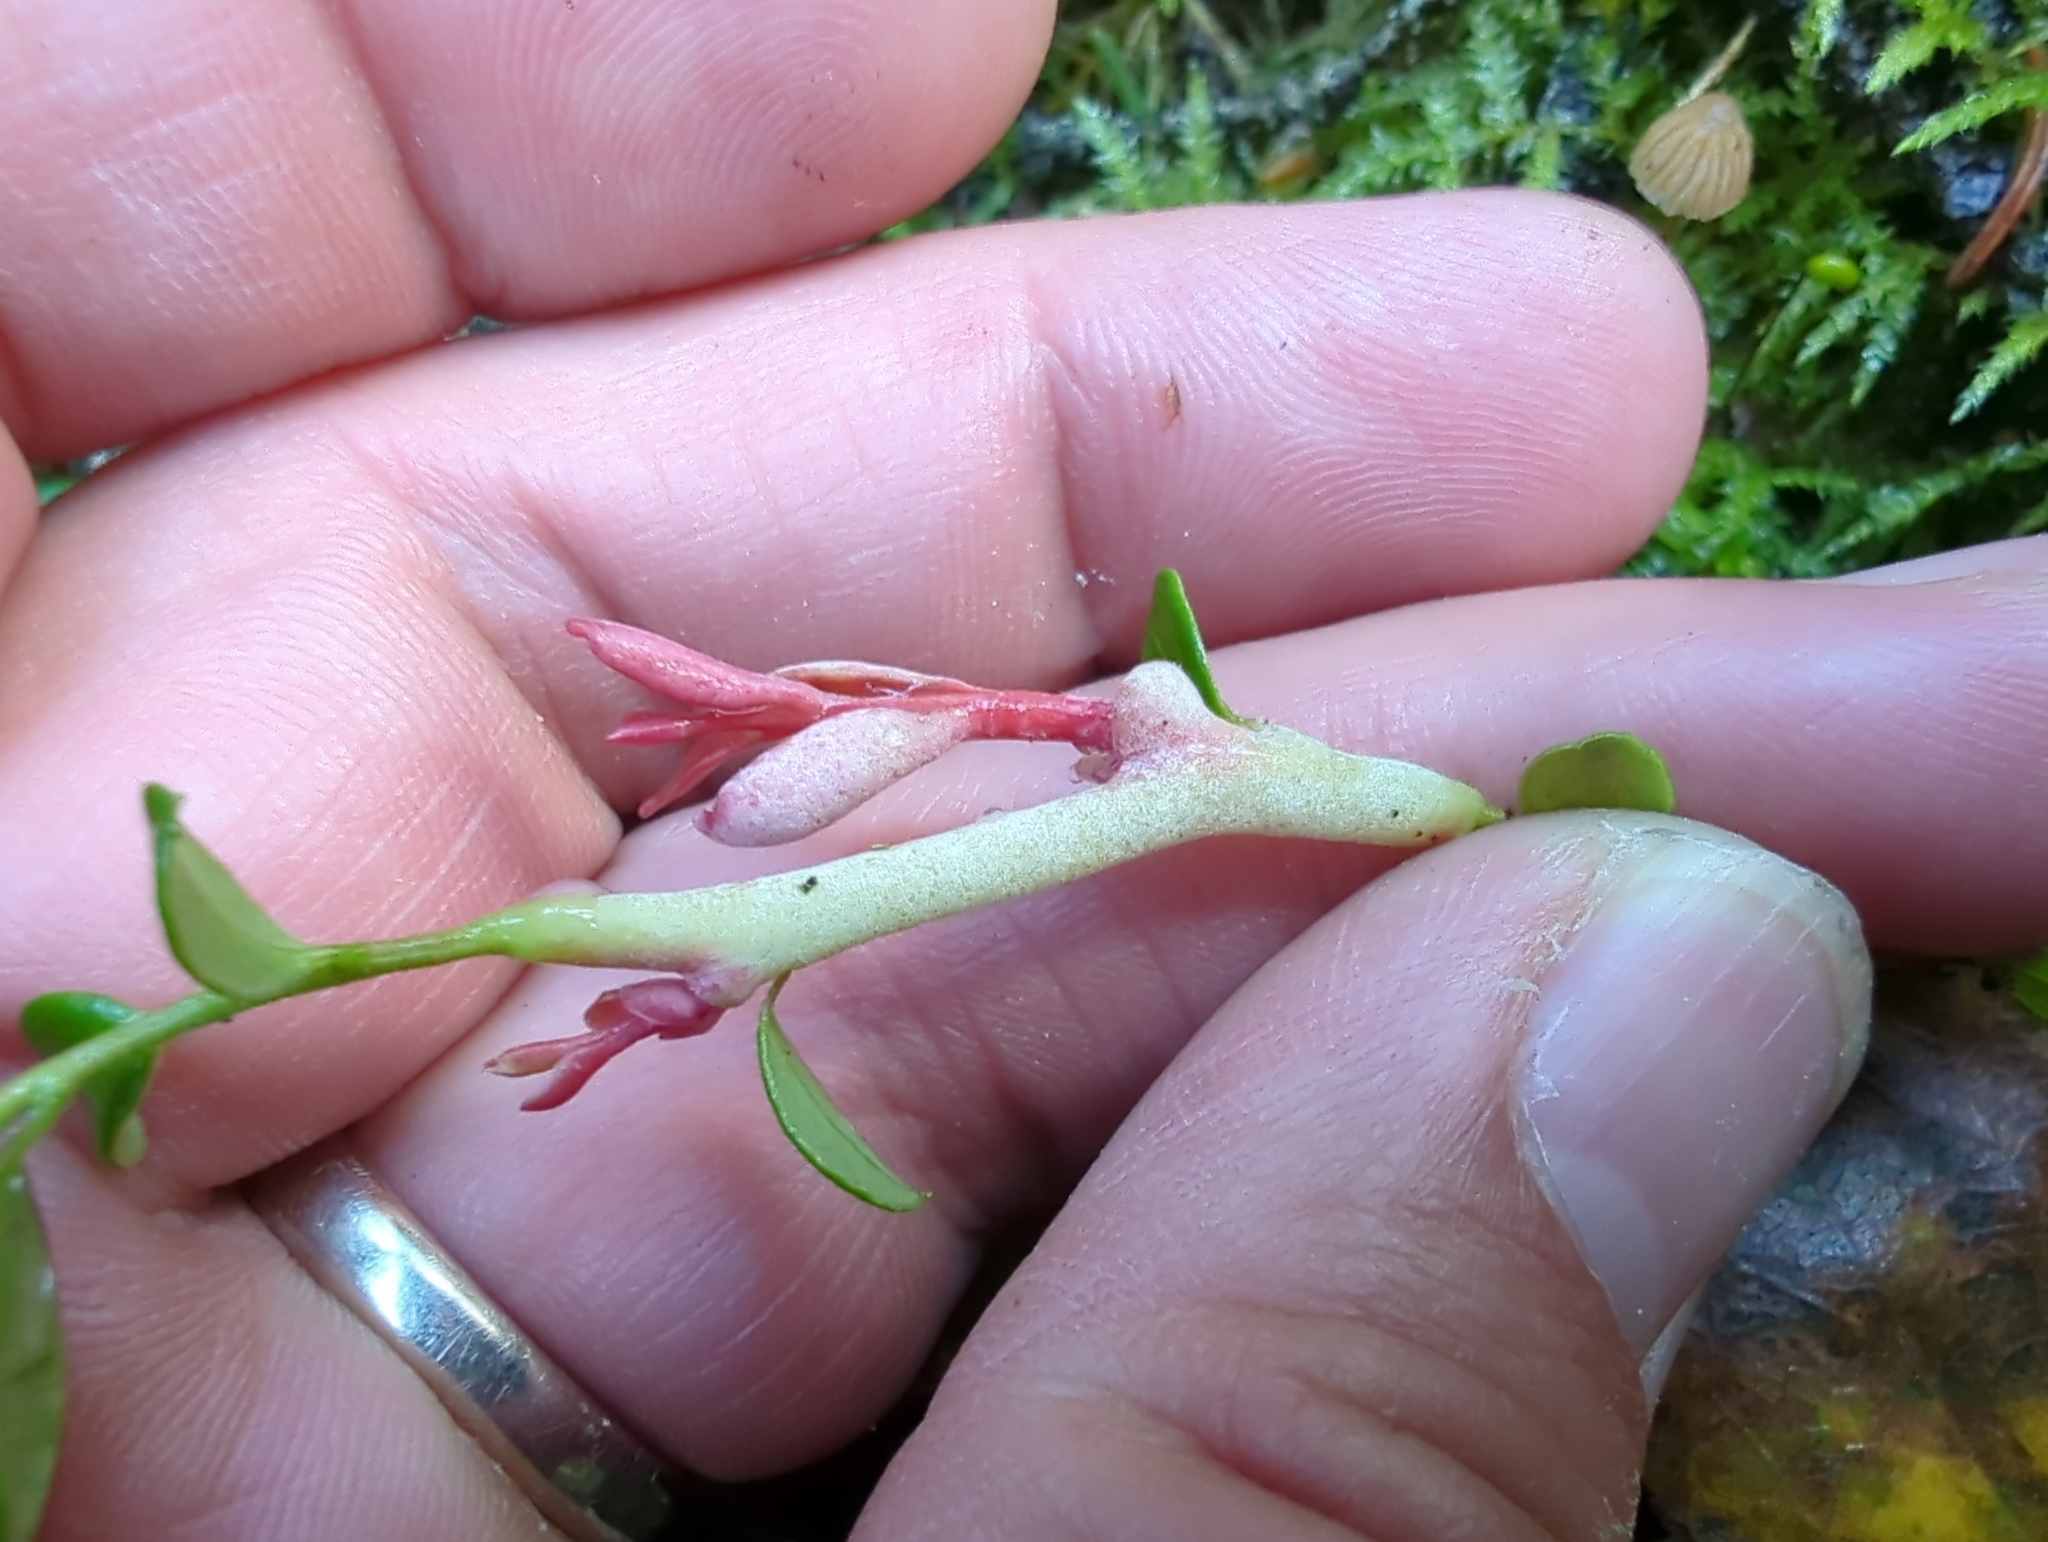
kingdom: Fungi
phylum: Basidiomycota
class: Exobasidiomycetes
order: Exobasidiales
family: Exobasidiaceae
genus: Exobasidium
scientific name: Exobasidium vaccinii
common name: Cowberry redleaf
